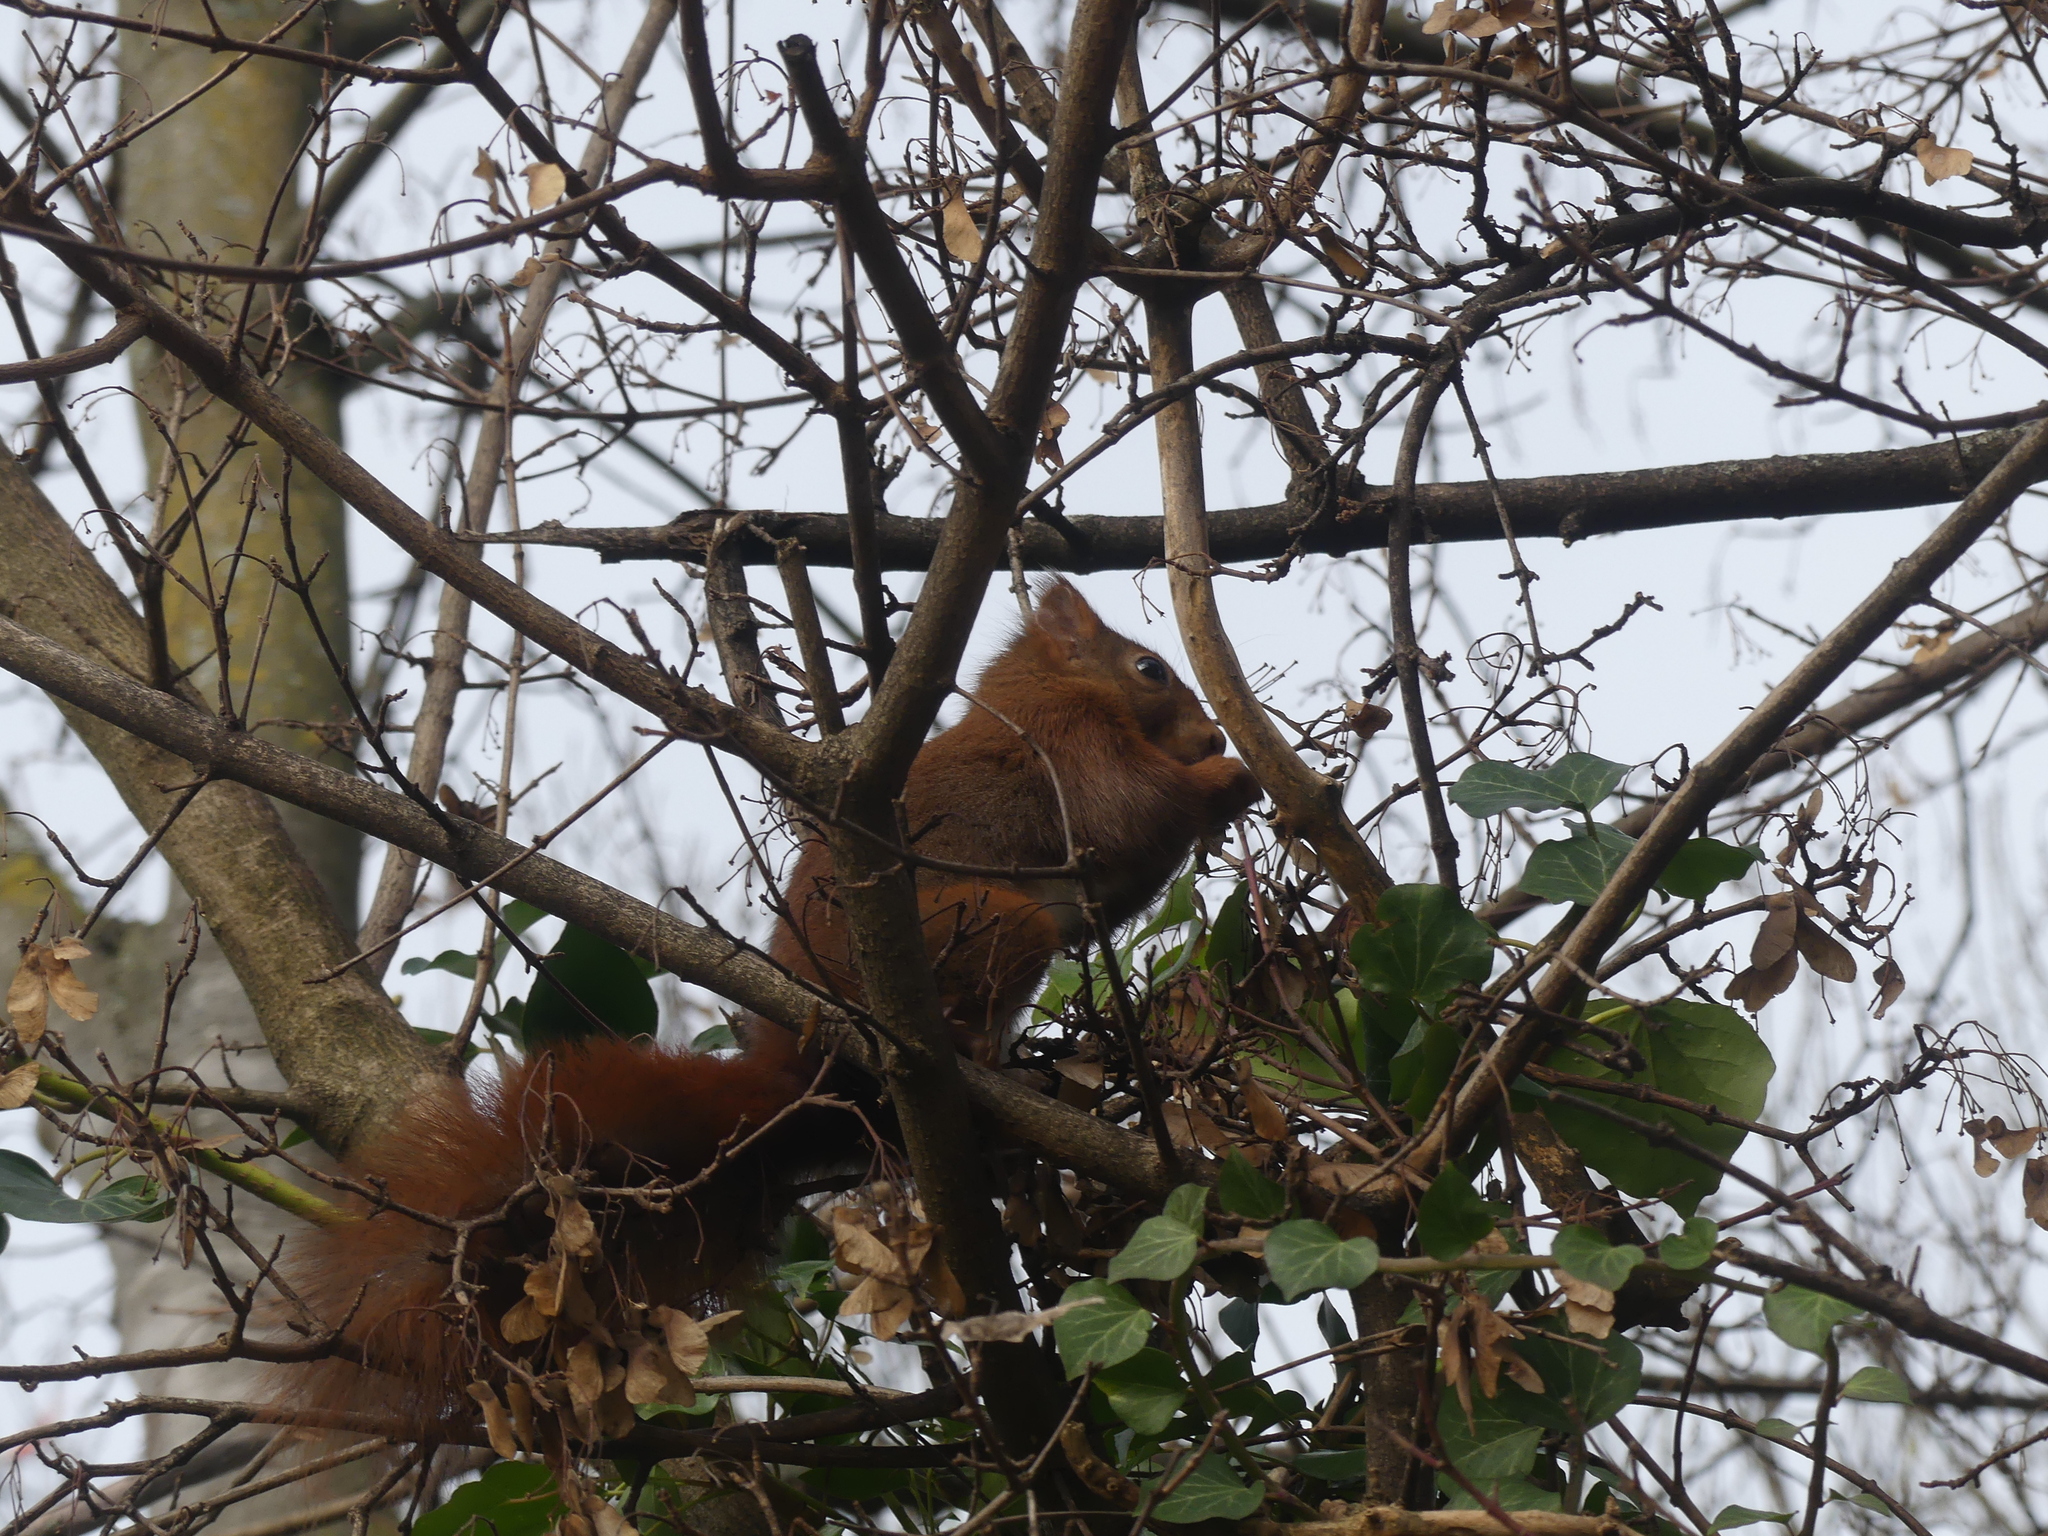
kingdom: Animalia
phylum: Chordata
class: Mammalia
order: Rodentia
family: Sciuridae
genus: Sciurus
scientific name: Sciurus vulgaris
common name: Eurasian red squirrel
